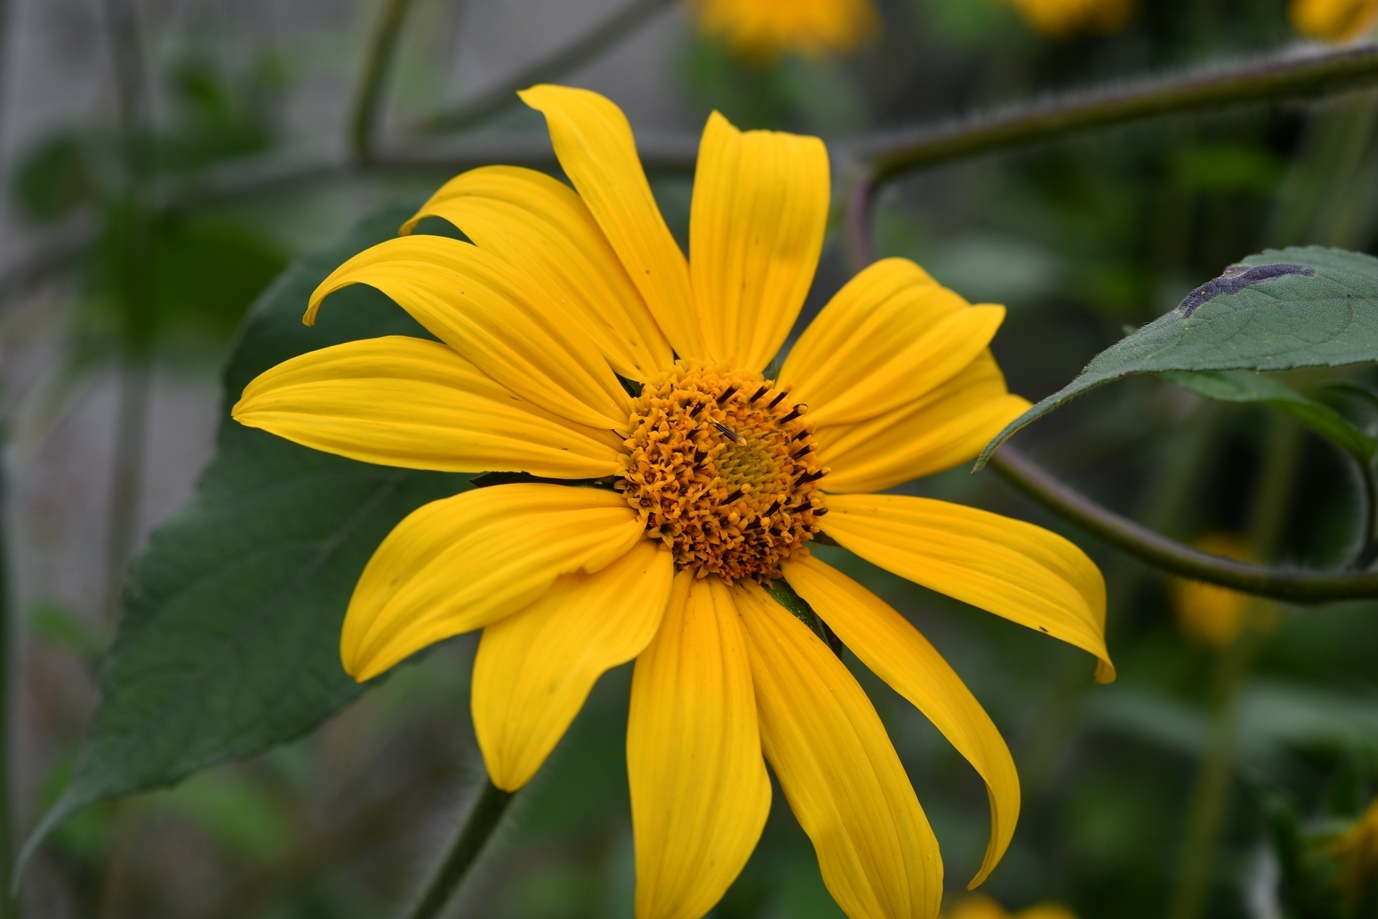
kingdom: Plantae
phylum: Tracheophyta
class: Magnoliopsida
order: Asterales
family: Asteraceae
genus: Tithonia
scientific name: Tithonia tubaeformis
